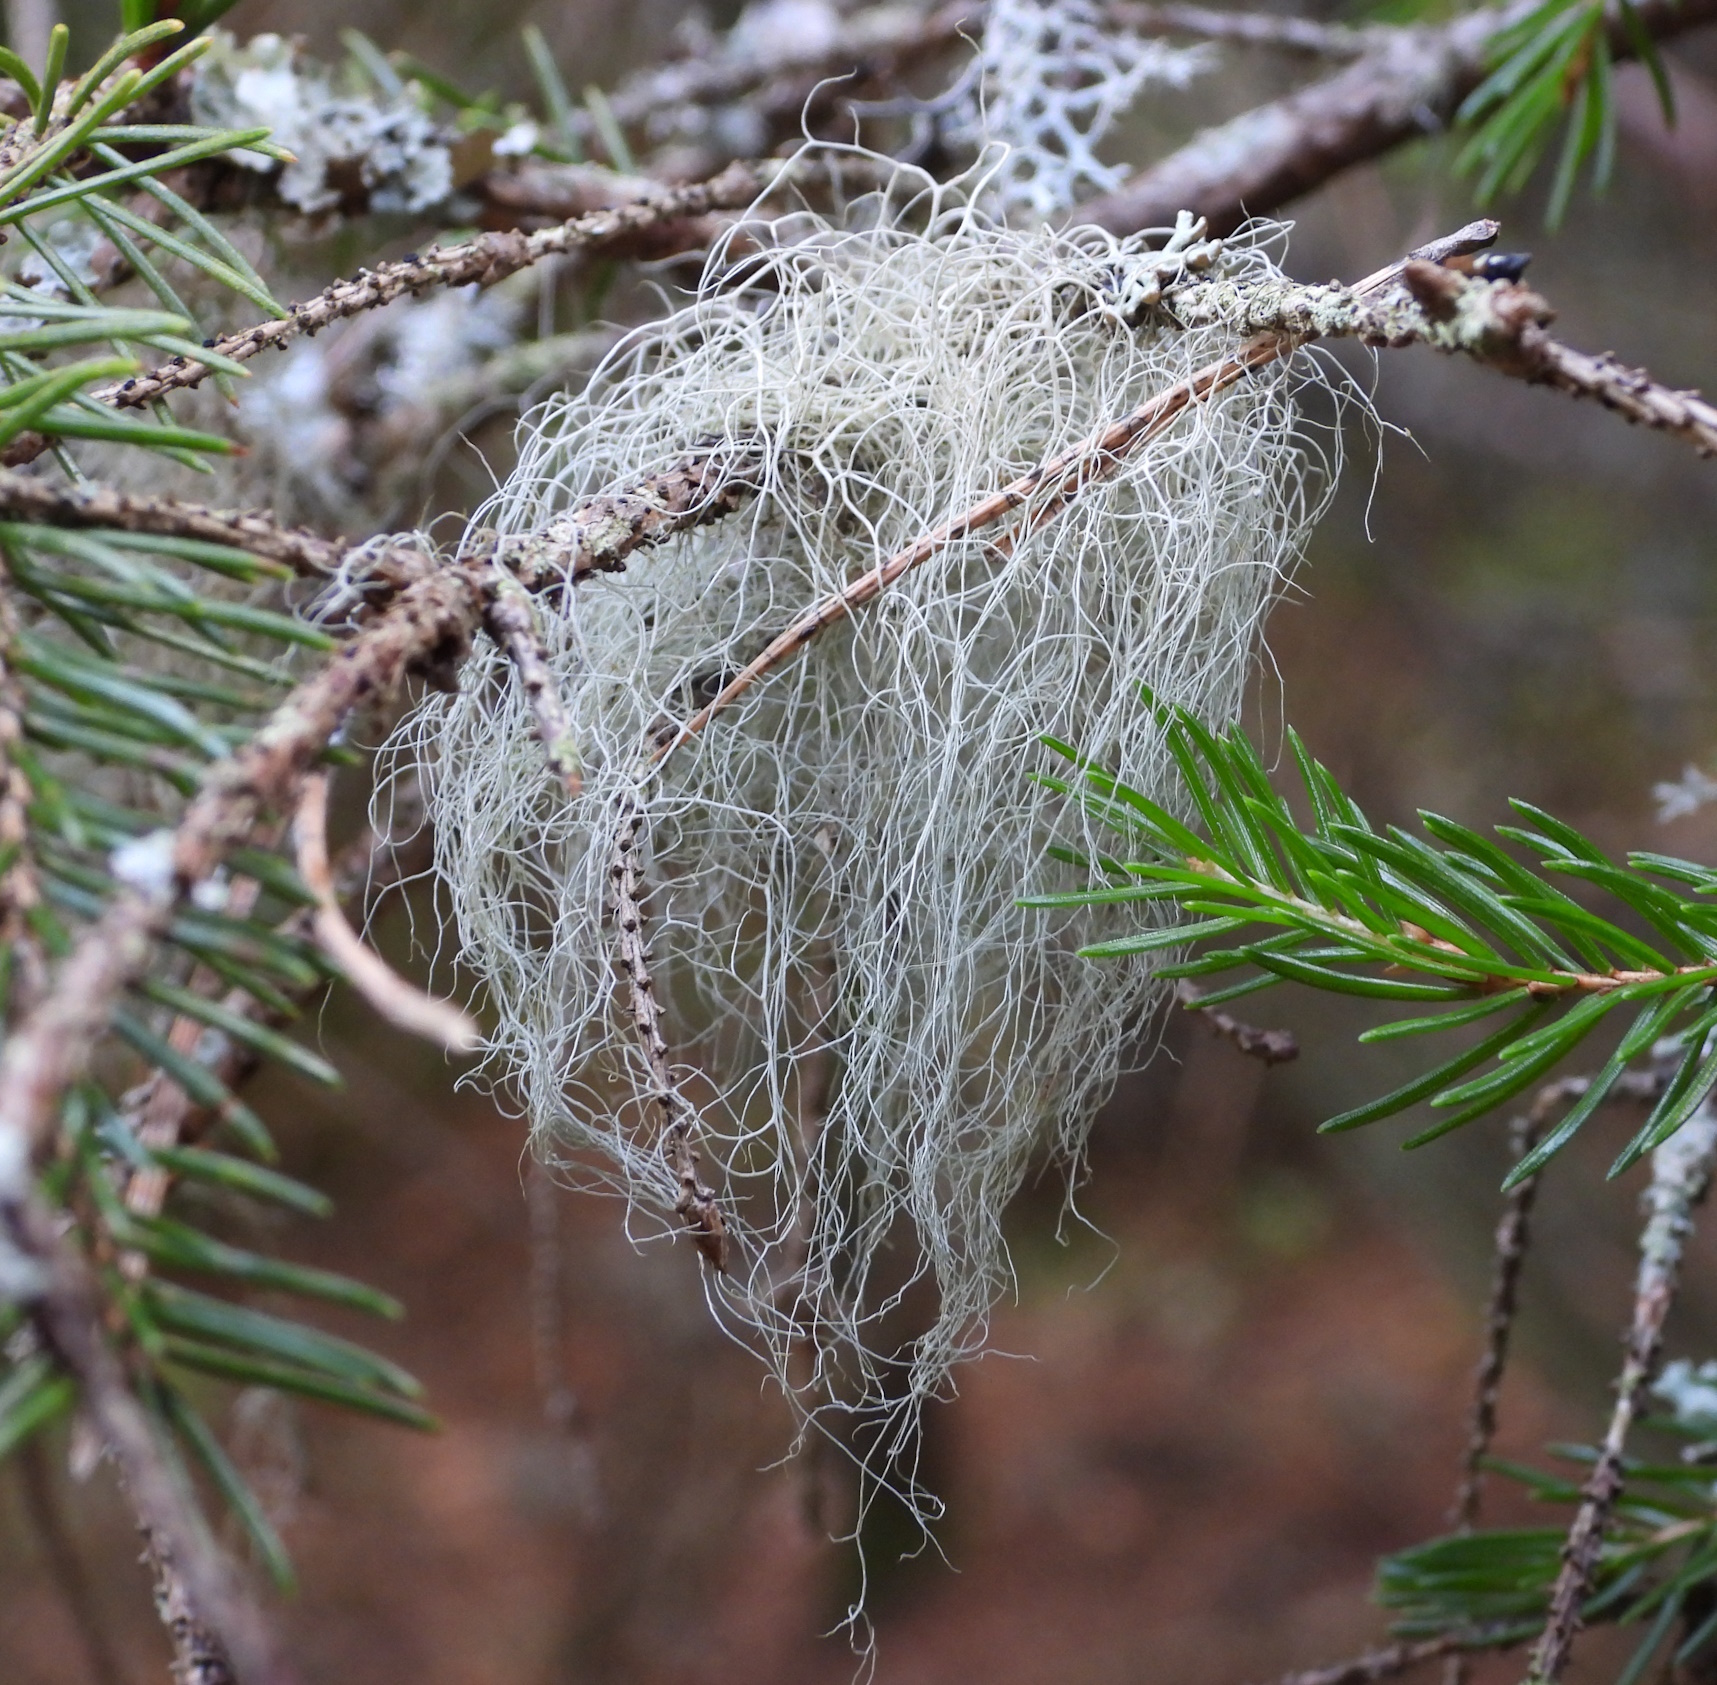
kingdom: Fungi
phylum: Ascomycota
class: Lecanoromycetes
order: Lecanorales
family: Parmeliaceae
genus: Bryoria
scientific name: Bryoria fuscescens
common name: Pale-footed horsehair lichen
